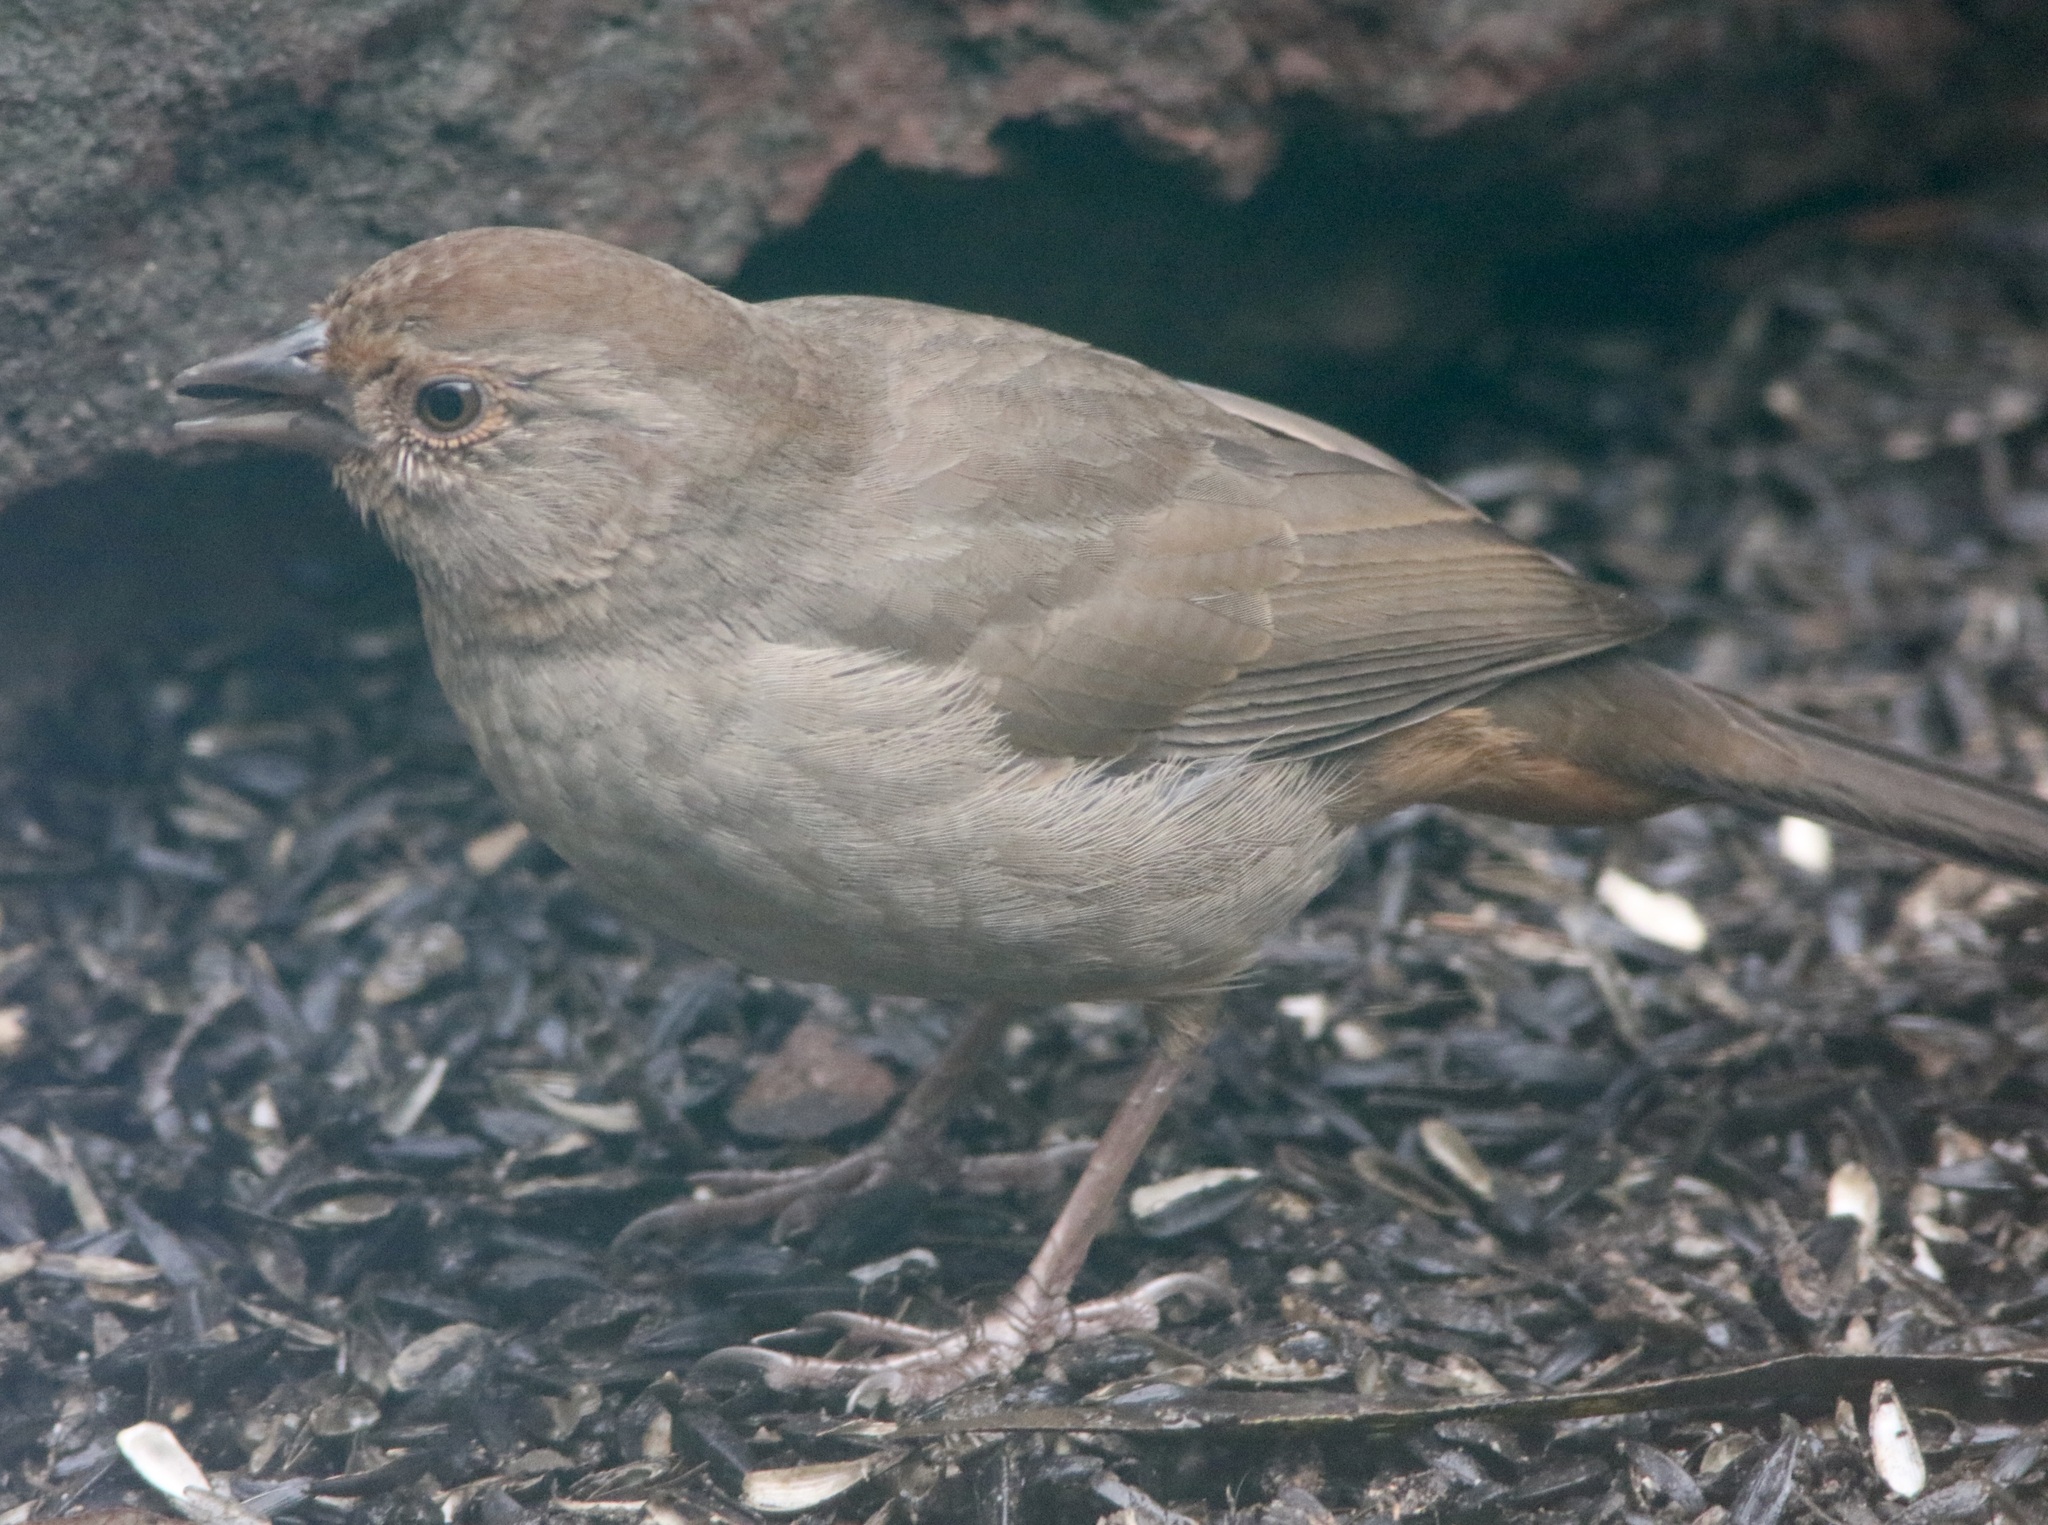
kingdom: Animalia
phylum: Chordata
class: Aves
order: Passeriformes
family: Passerellidae
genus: Melozone
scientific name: Melozone crissalis
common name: California towhee
